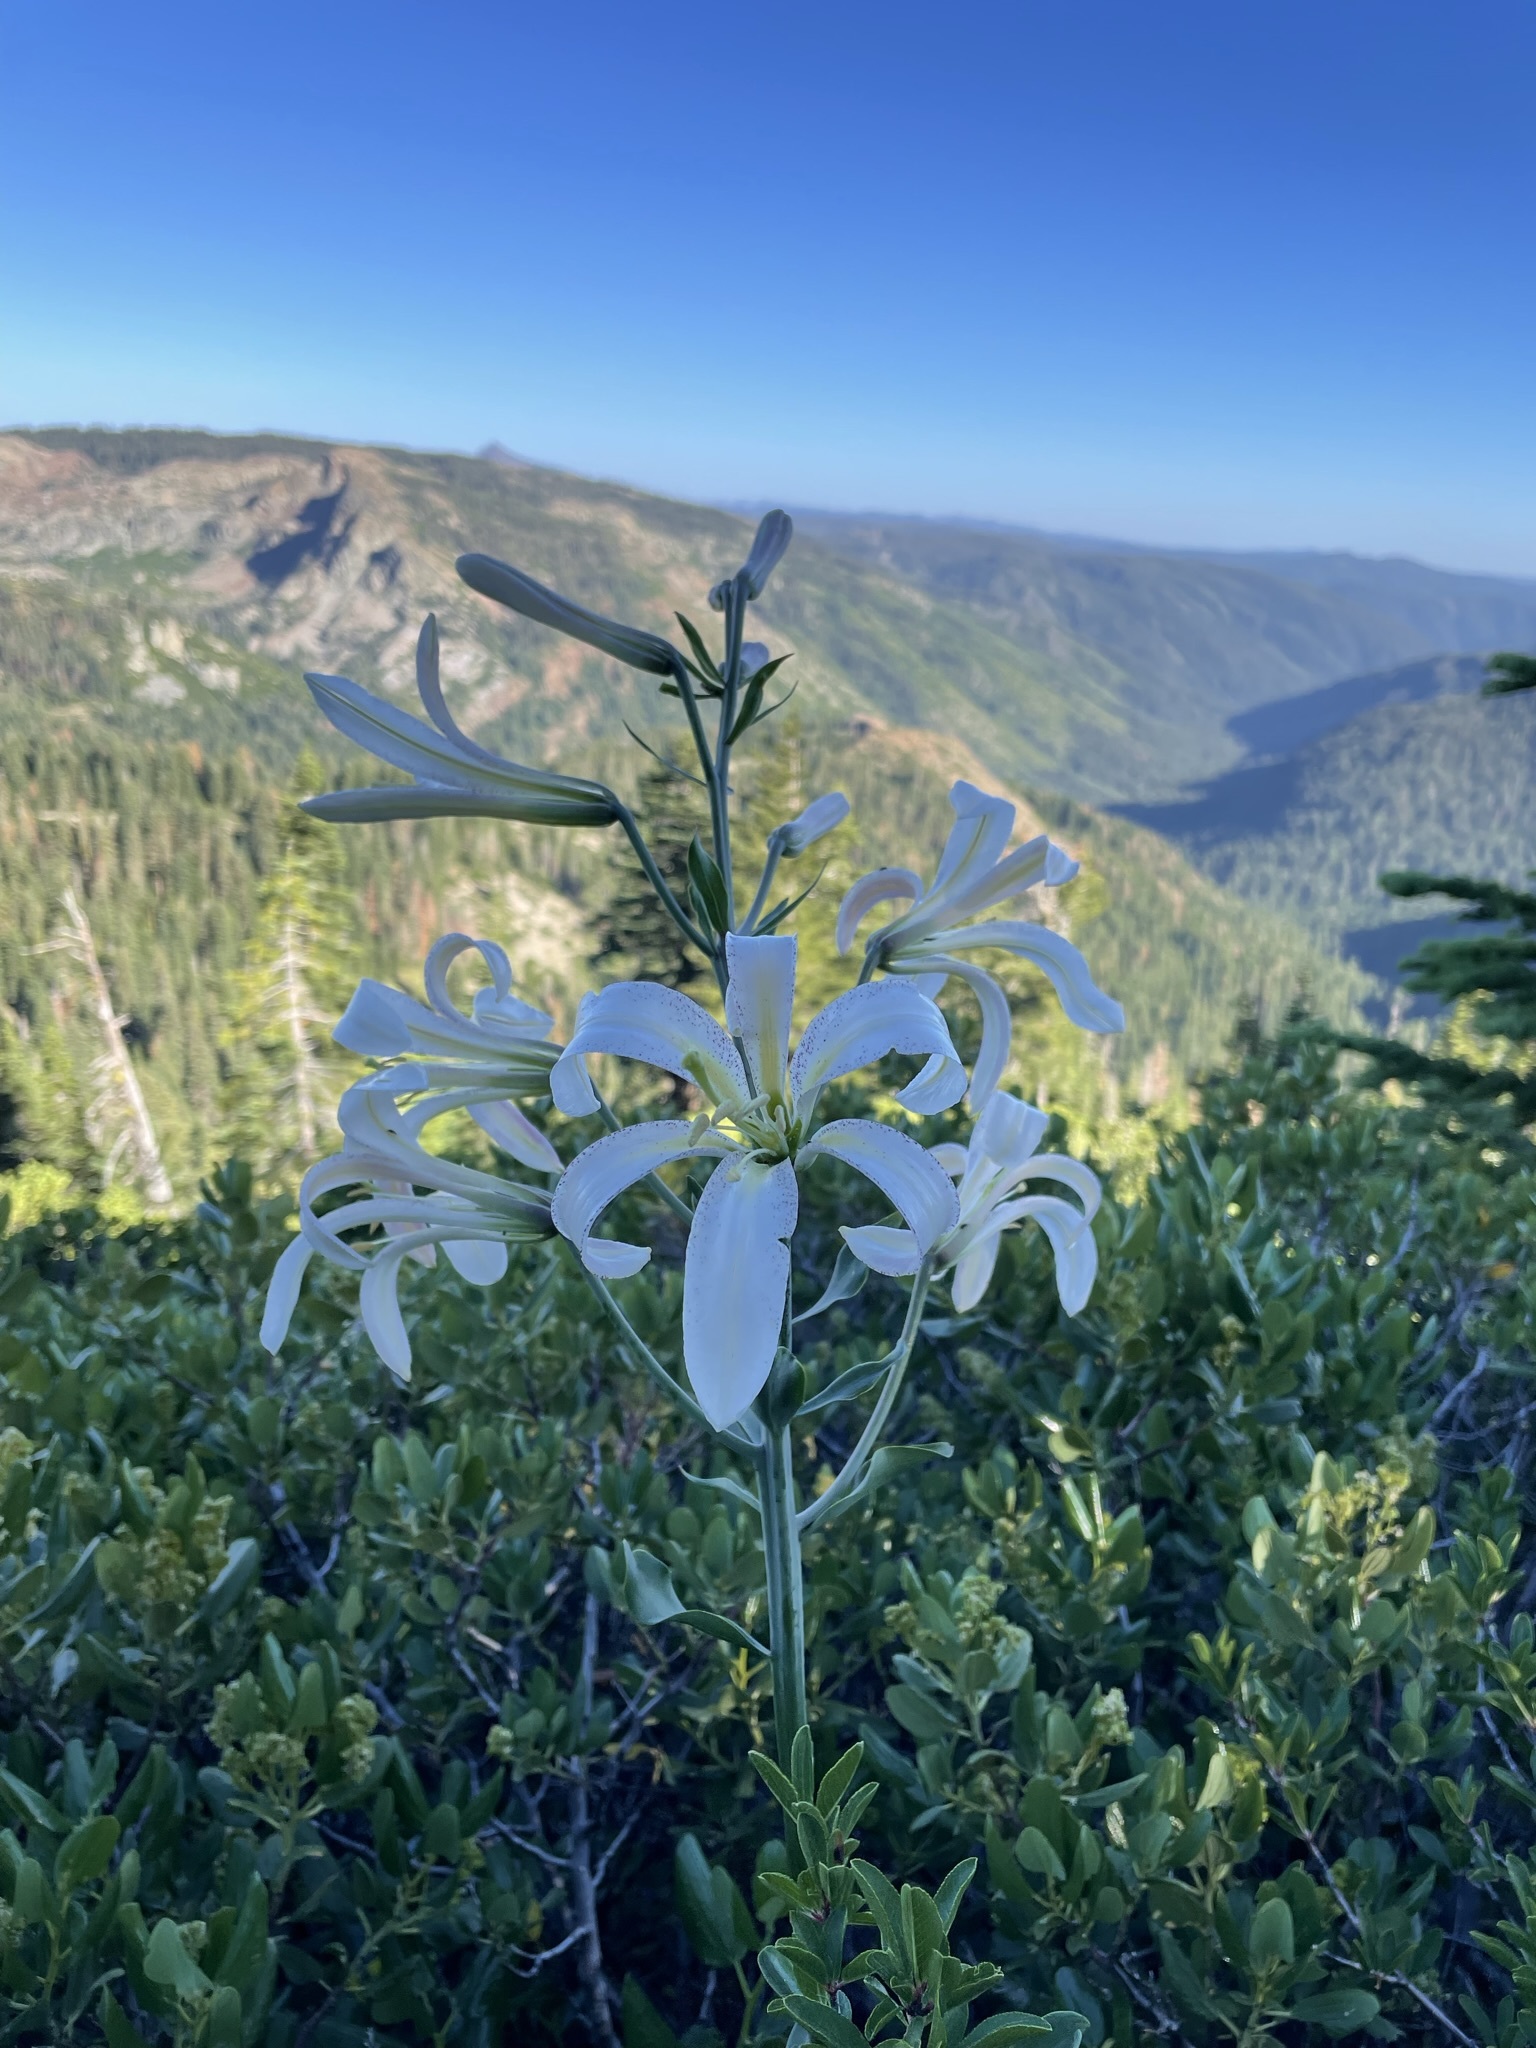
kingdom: Plantae
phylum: Tracheophyta
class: Liliopsida
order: Liliales
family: Liliaceae
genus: Lilium
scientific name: Lilium washingtonianum
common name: Washington lily
